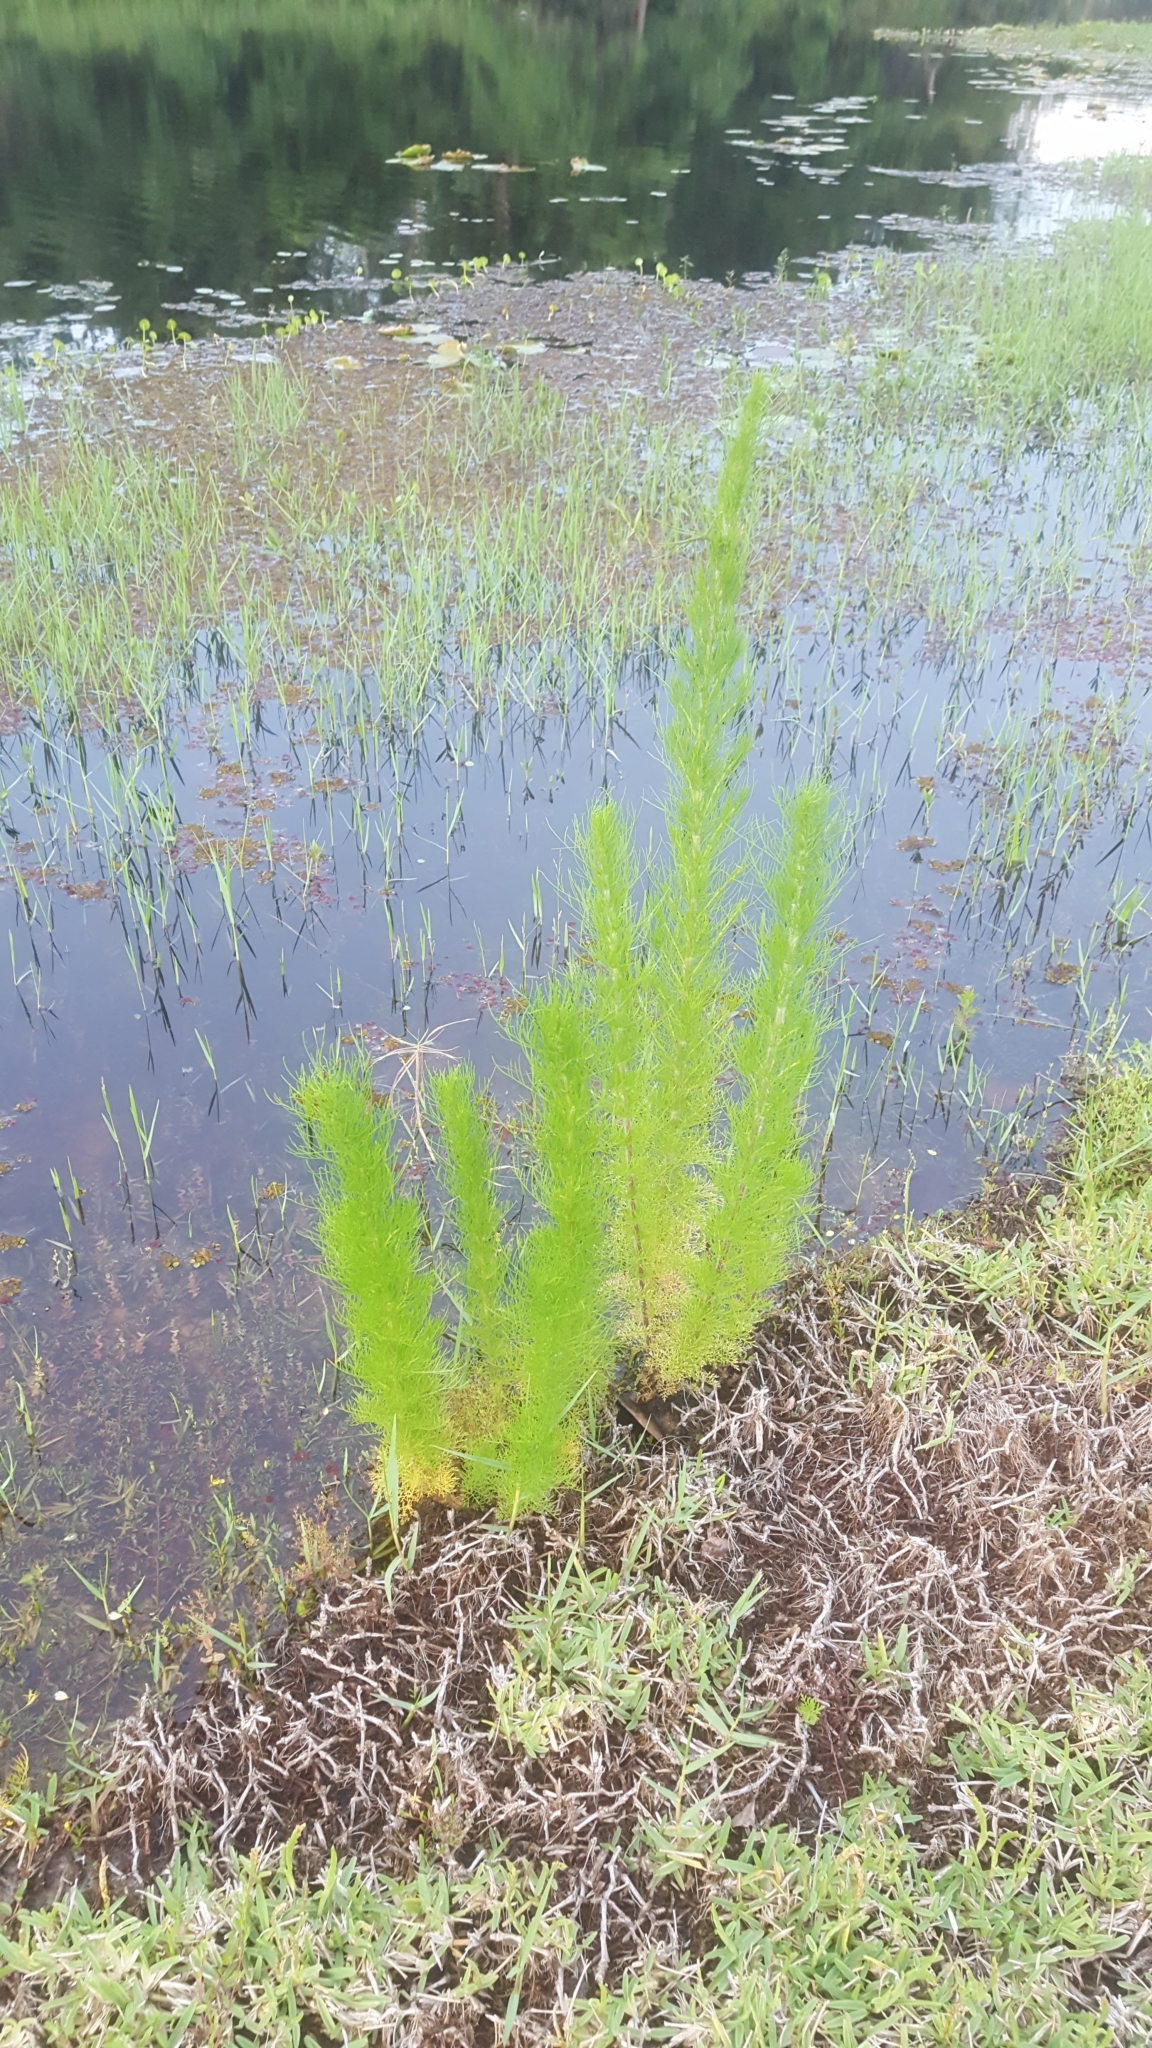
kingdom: Plantae
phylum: Tracheophyta
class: Magnoliopsida
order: Asterales
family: Asteraceae
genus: Eupatorium
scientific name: Eupatorium capillifolium
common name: Dog-fennel
